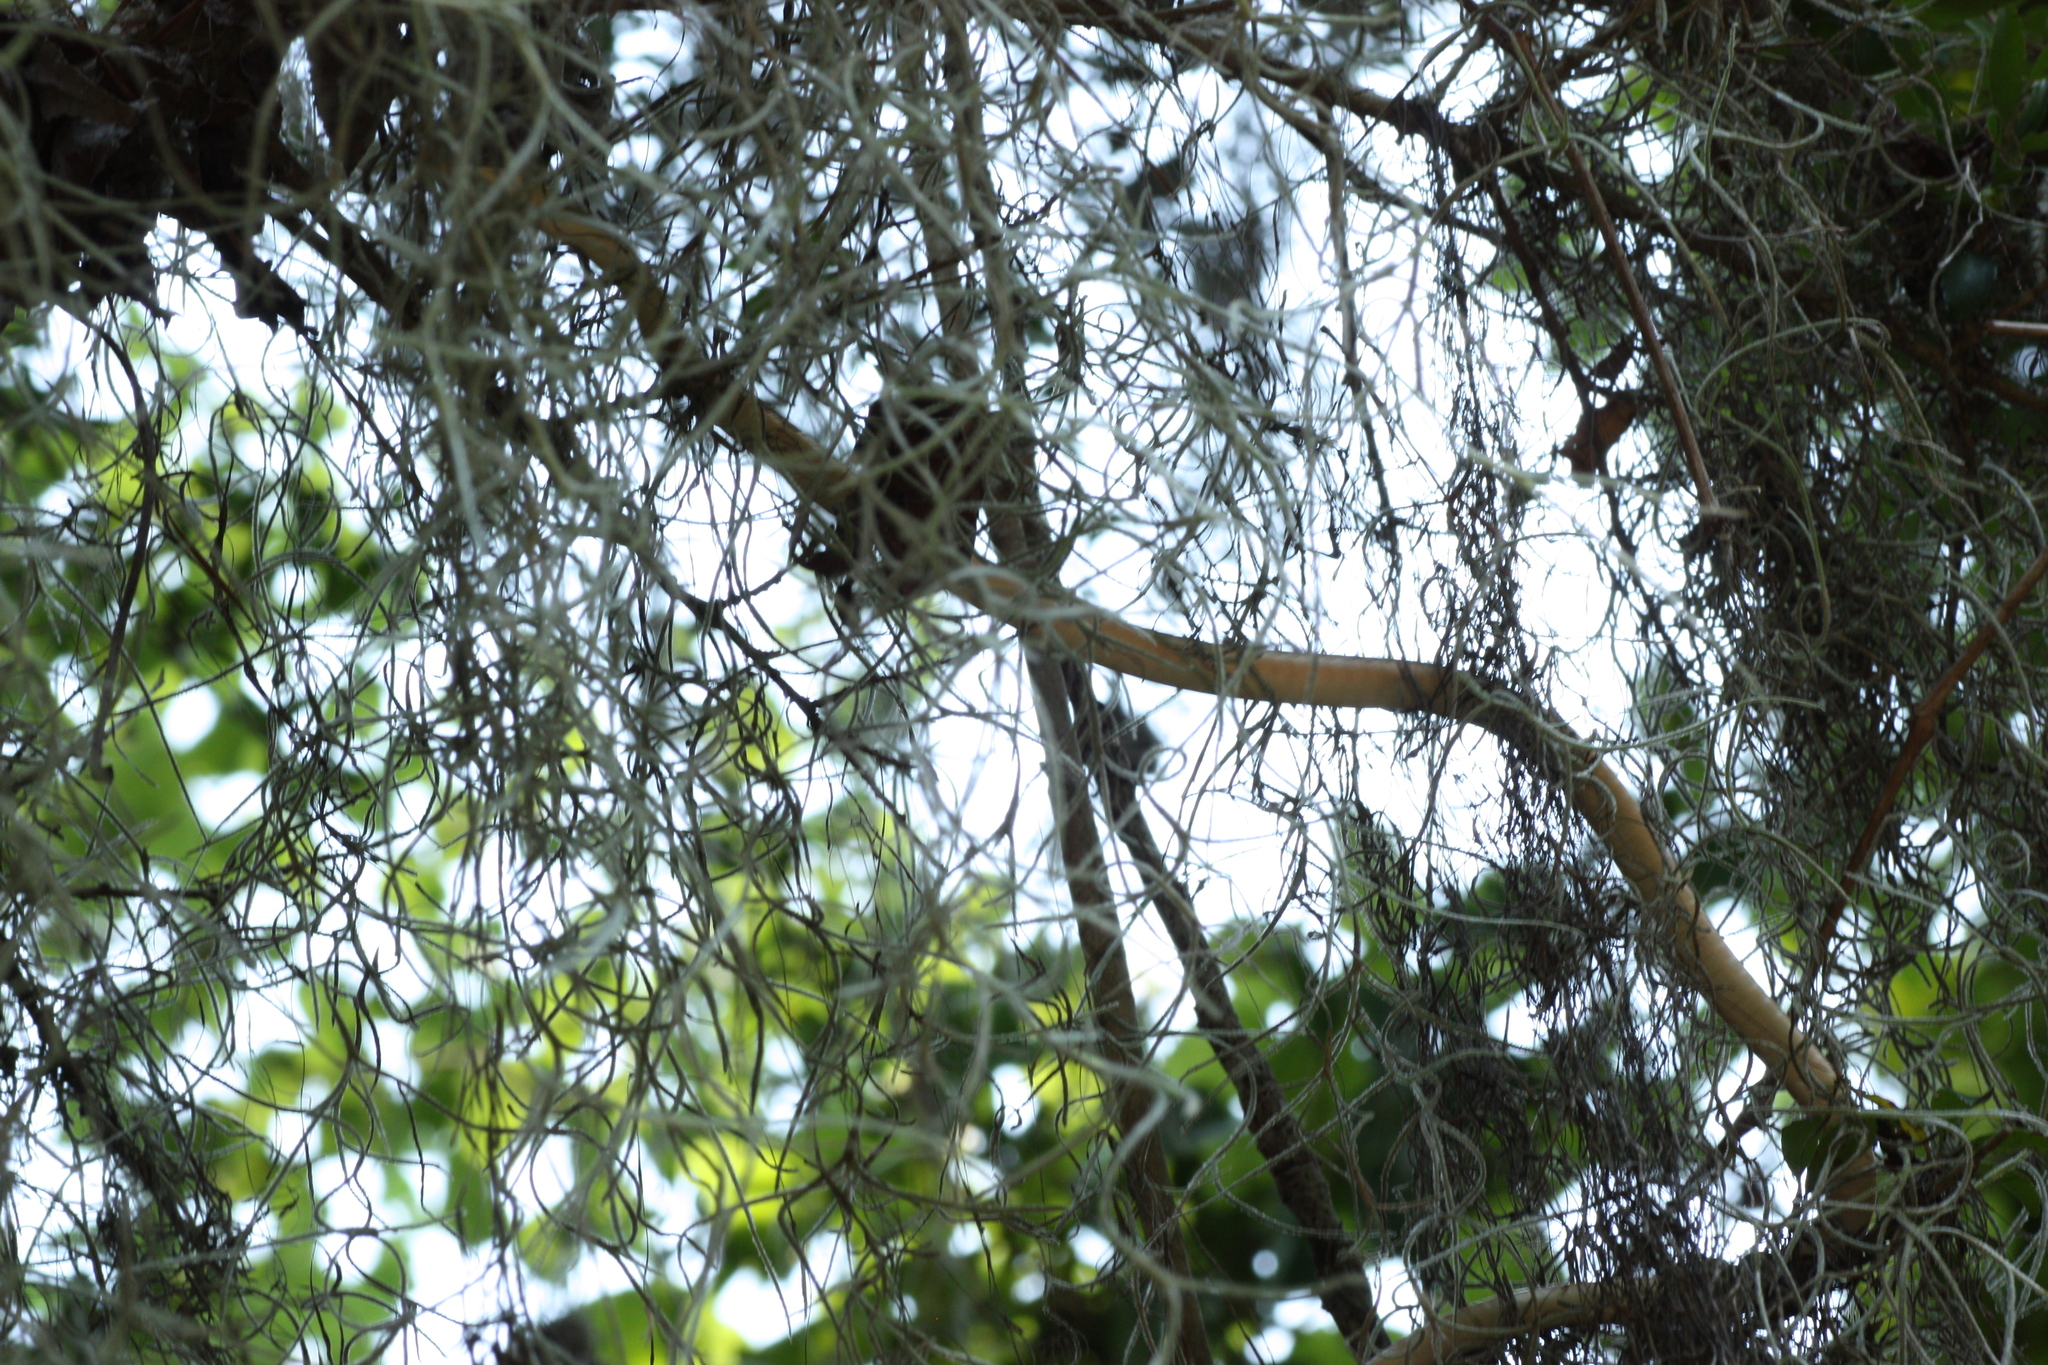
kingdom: Animalia
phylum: Chordata
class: Squamata
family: Colubridae
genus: Thamnophis
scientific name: Thamnophis proximus
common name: Western ribbon snake
